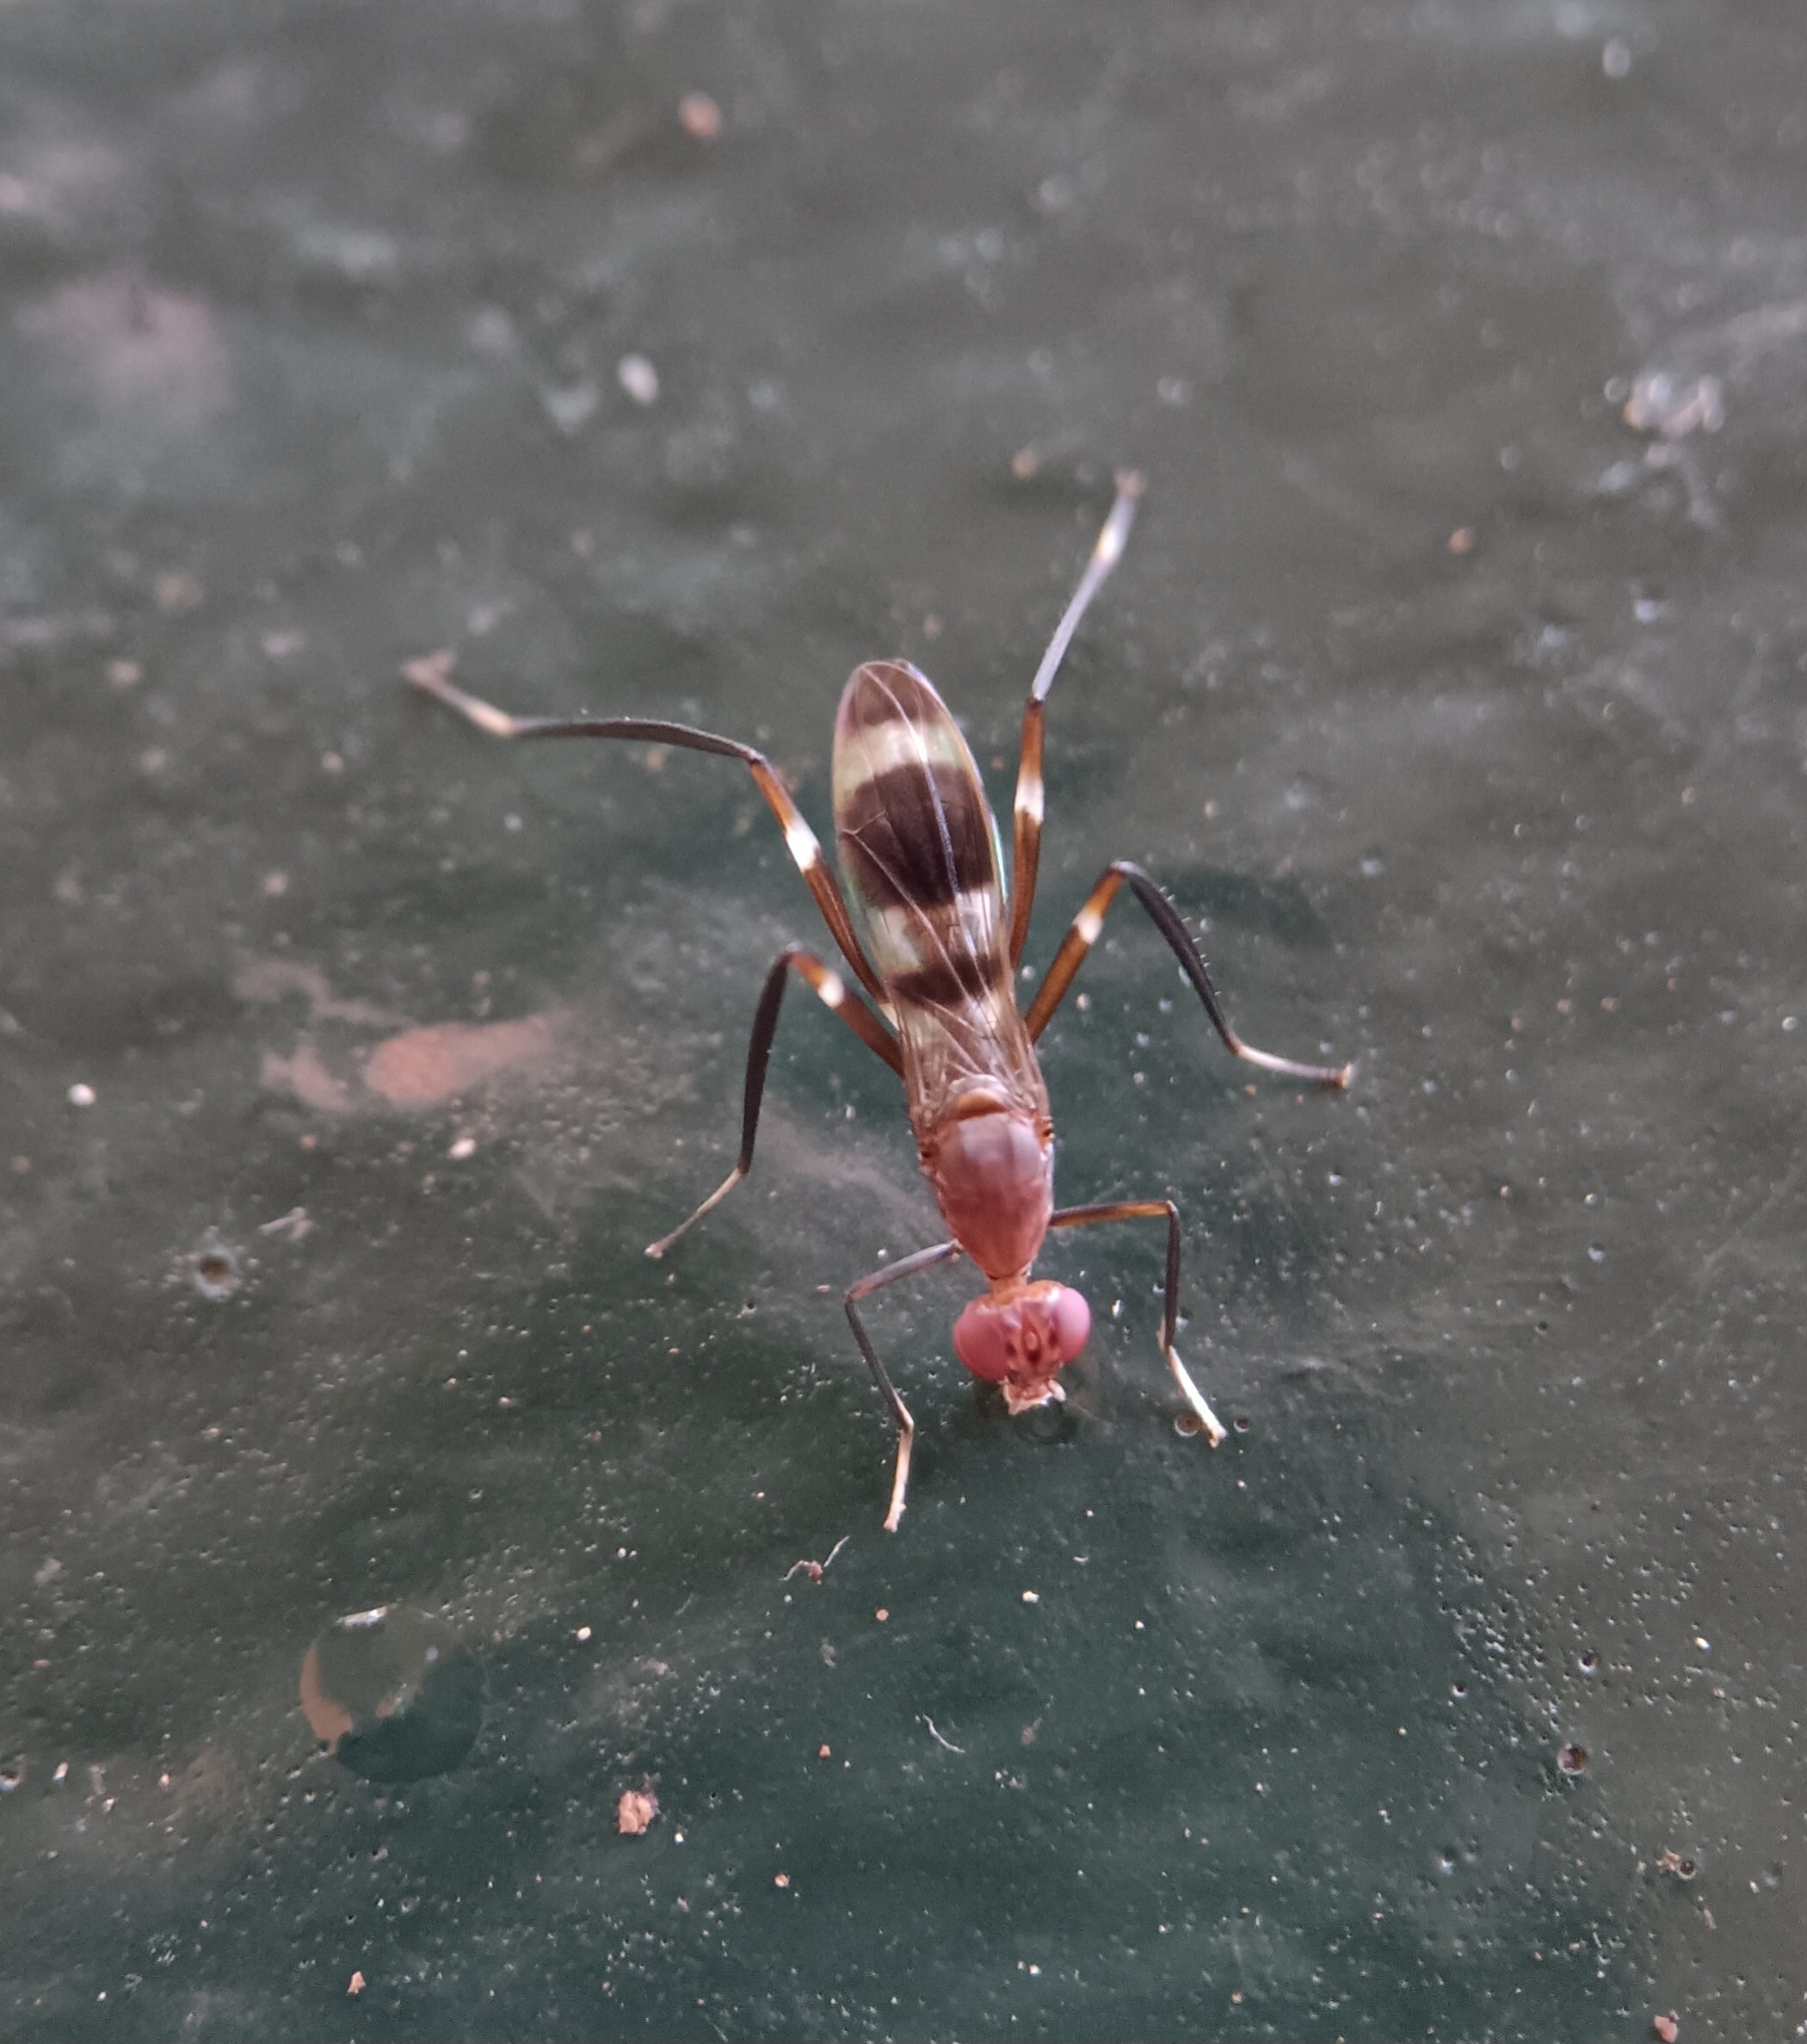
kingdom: Animalia
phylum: Arthropoda
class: Insecta
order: Diptera
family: Micropezidae
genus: Paragrallomyia
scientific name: Paragrallomyia
